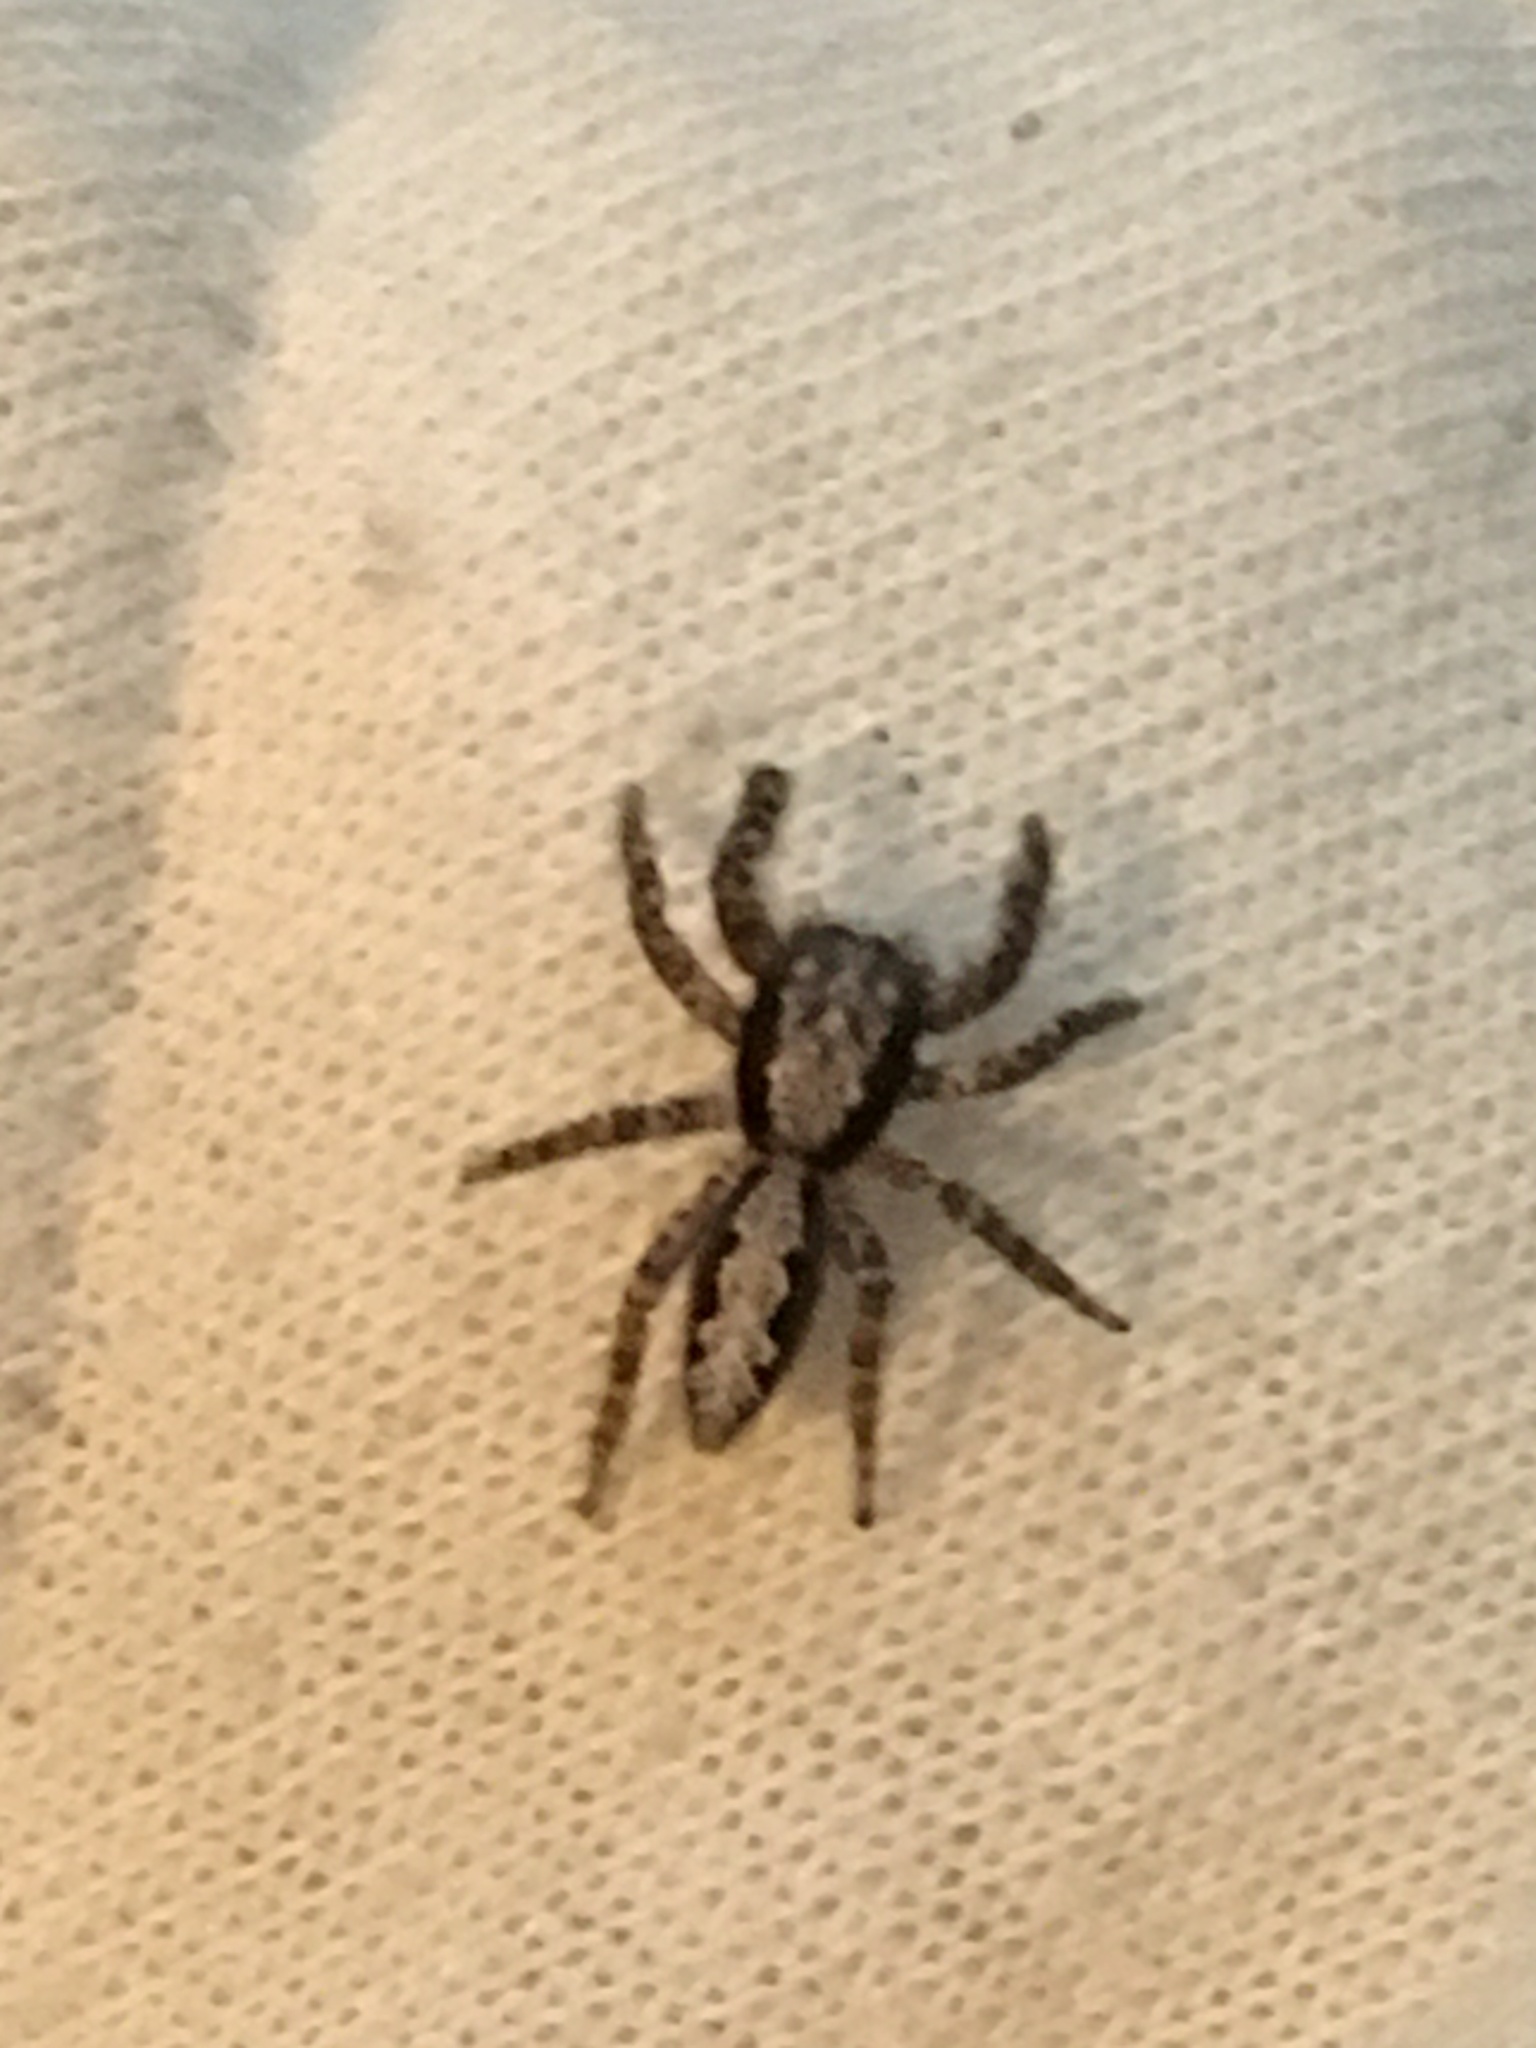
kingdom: Animalia
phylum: Arthropoda
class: Arachnida
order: Araneae
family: Salticidae
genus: Platycryptus
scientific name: Platycryptus californicus
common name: Jumping spiders
